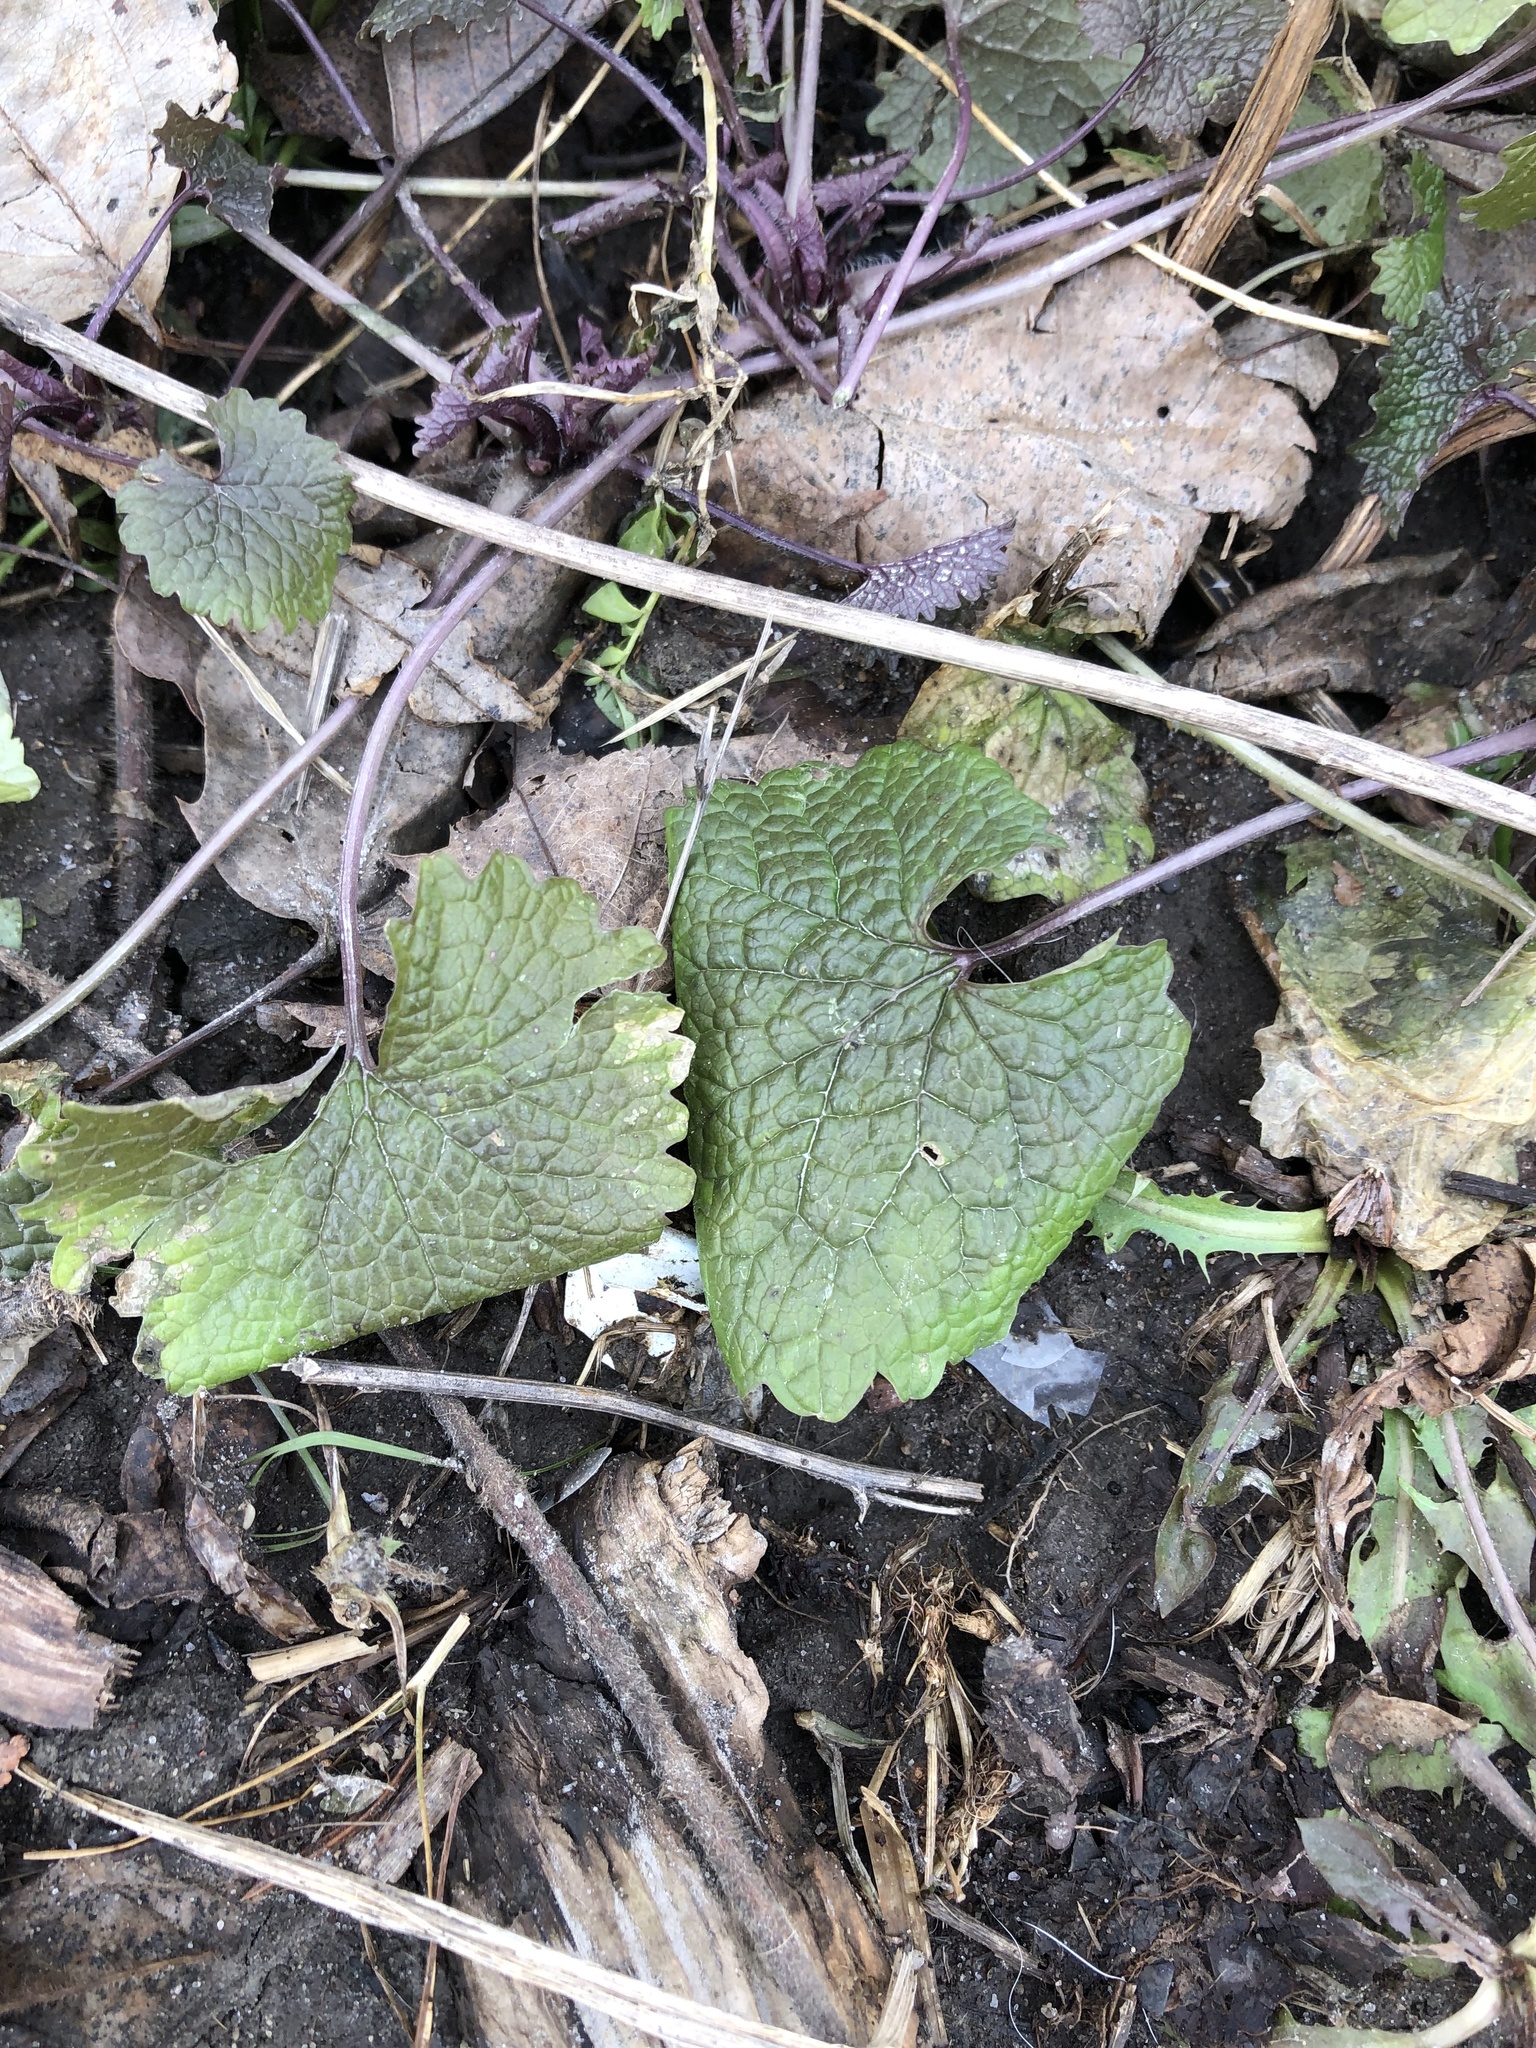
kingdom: Plantae
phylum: Tracheophyta
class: Magnoliopsida
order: Brassicales
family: Brassicaceae
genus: Alliaria
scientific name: Alliaria petiolata
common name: Garlic mustard
